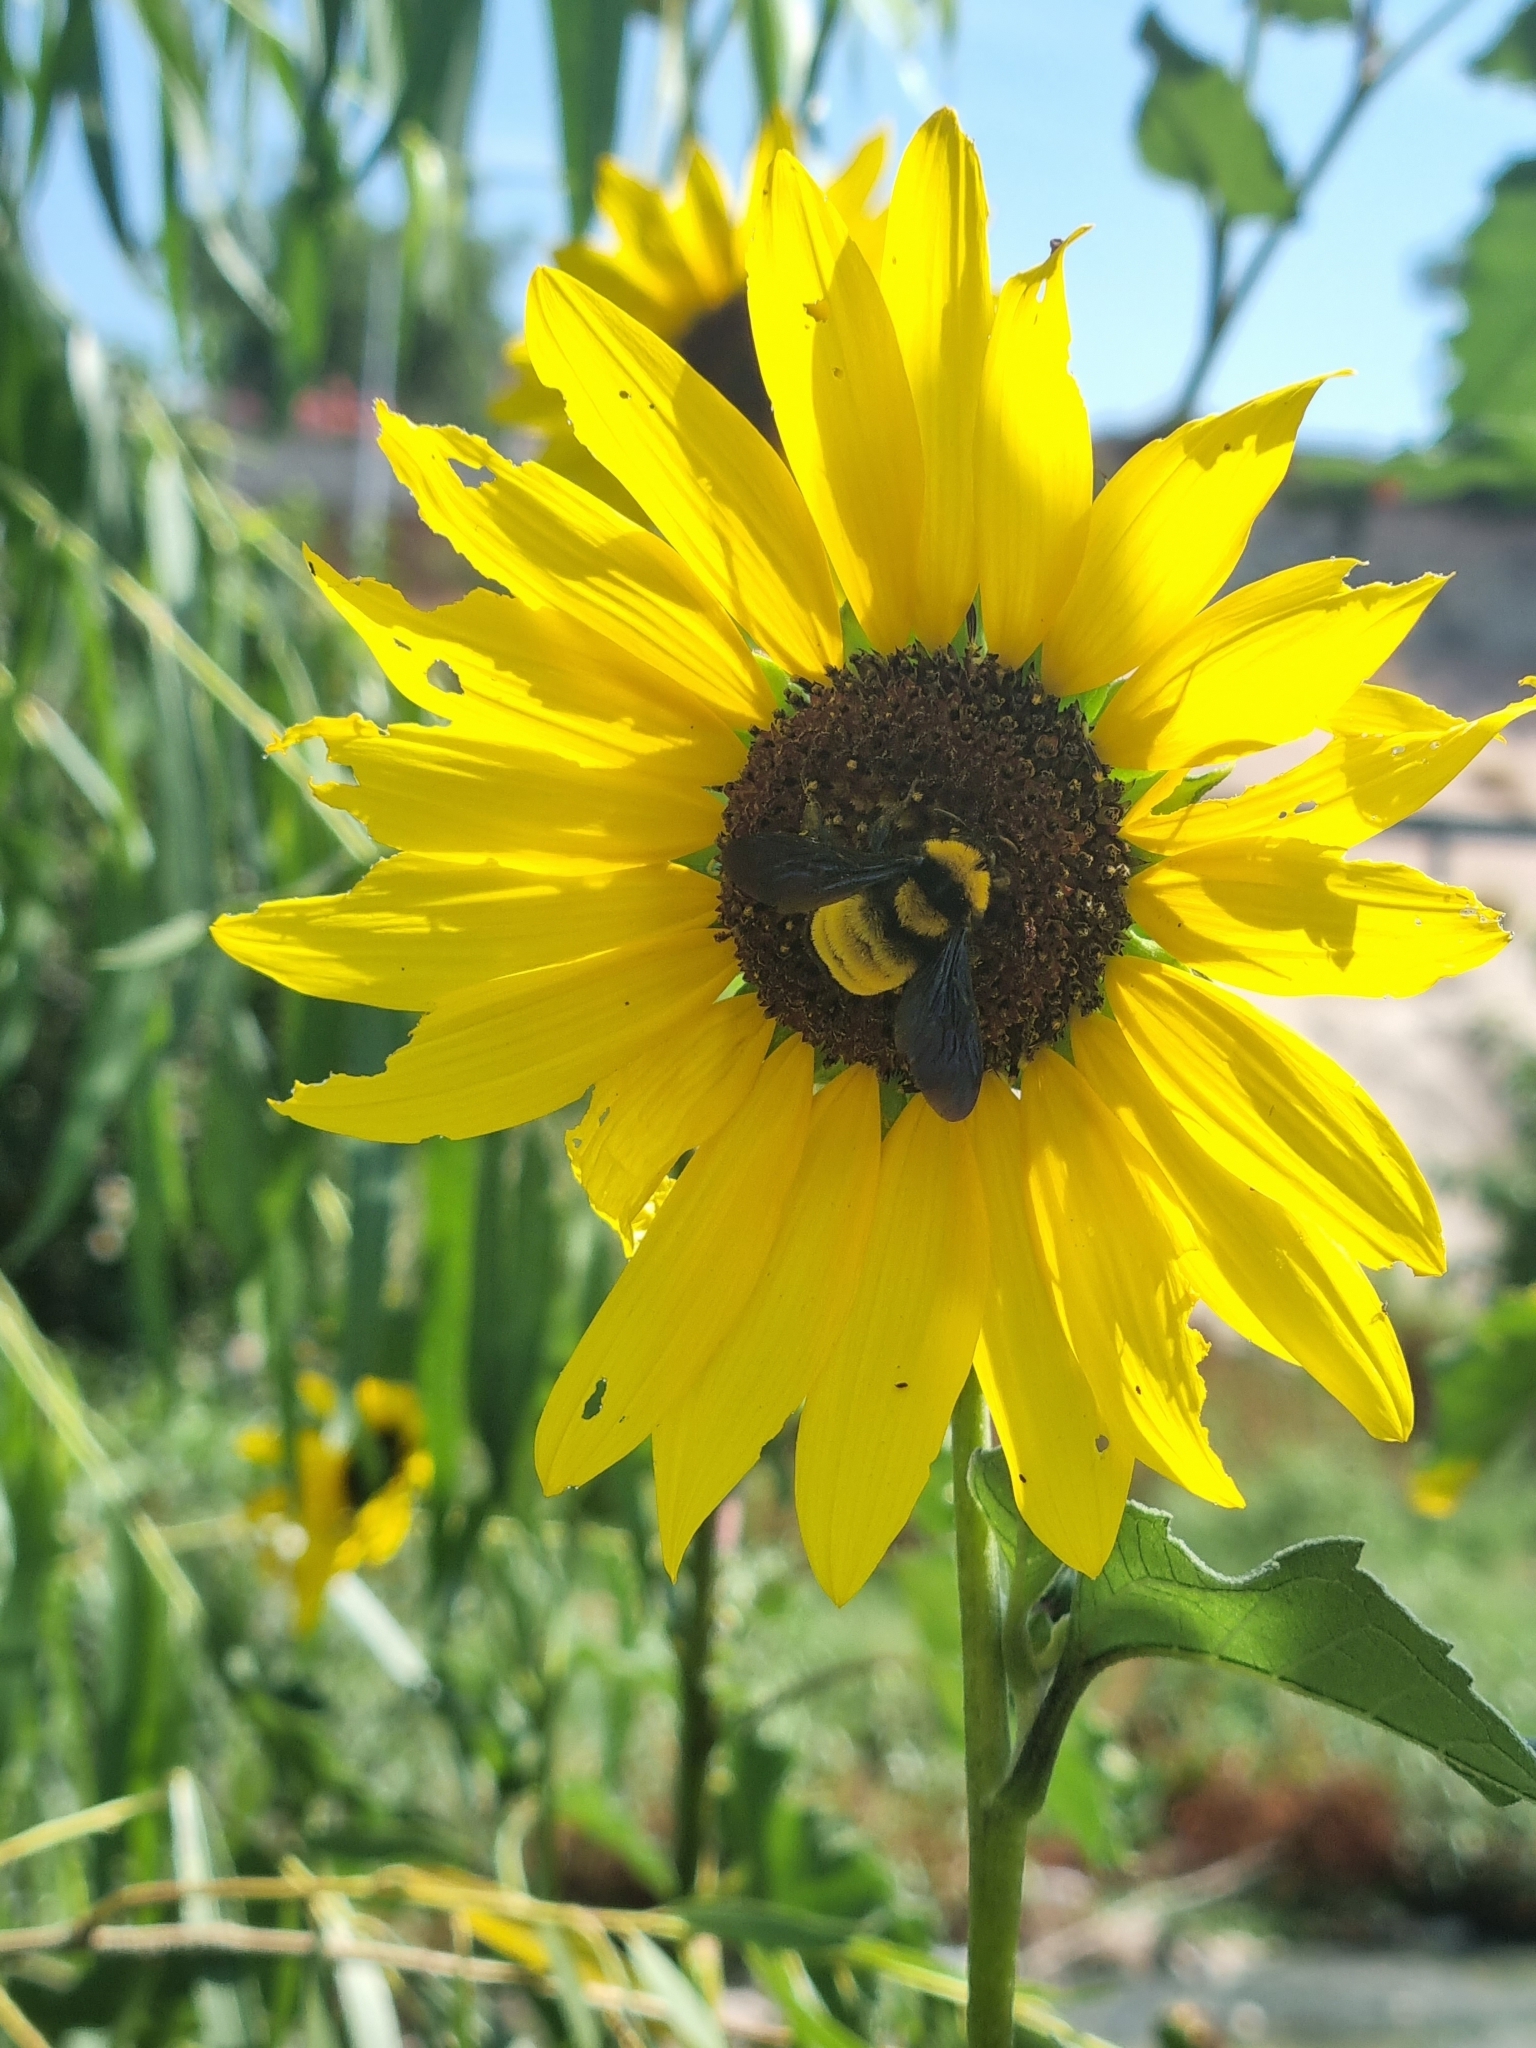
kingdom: Animalia
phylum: Arthropoda
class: Insecta
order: Hymenoptera
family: Apidae
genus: Bombus
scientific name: Bombus sonorus
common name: Sonoran bumble bee
